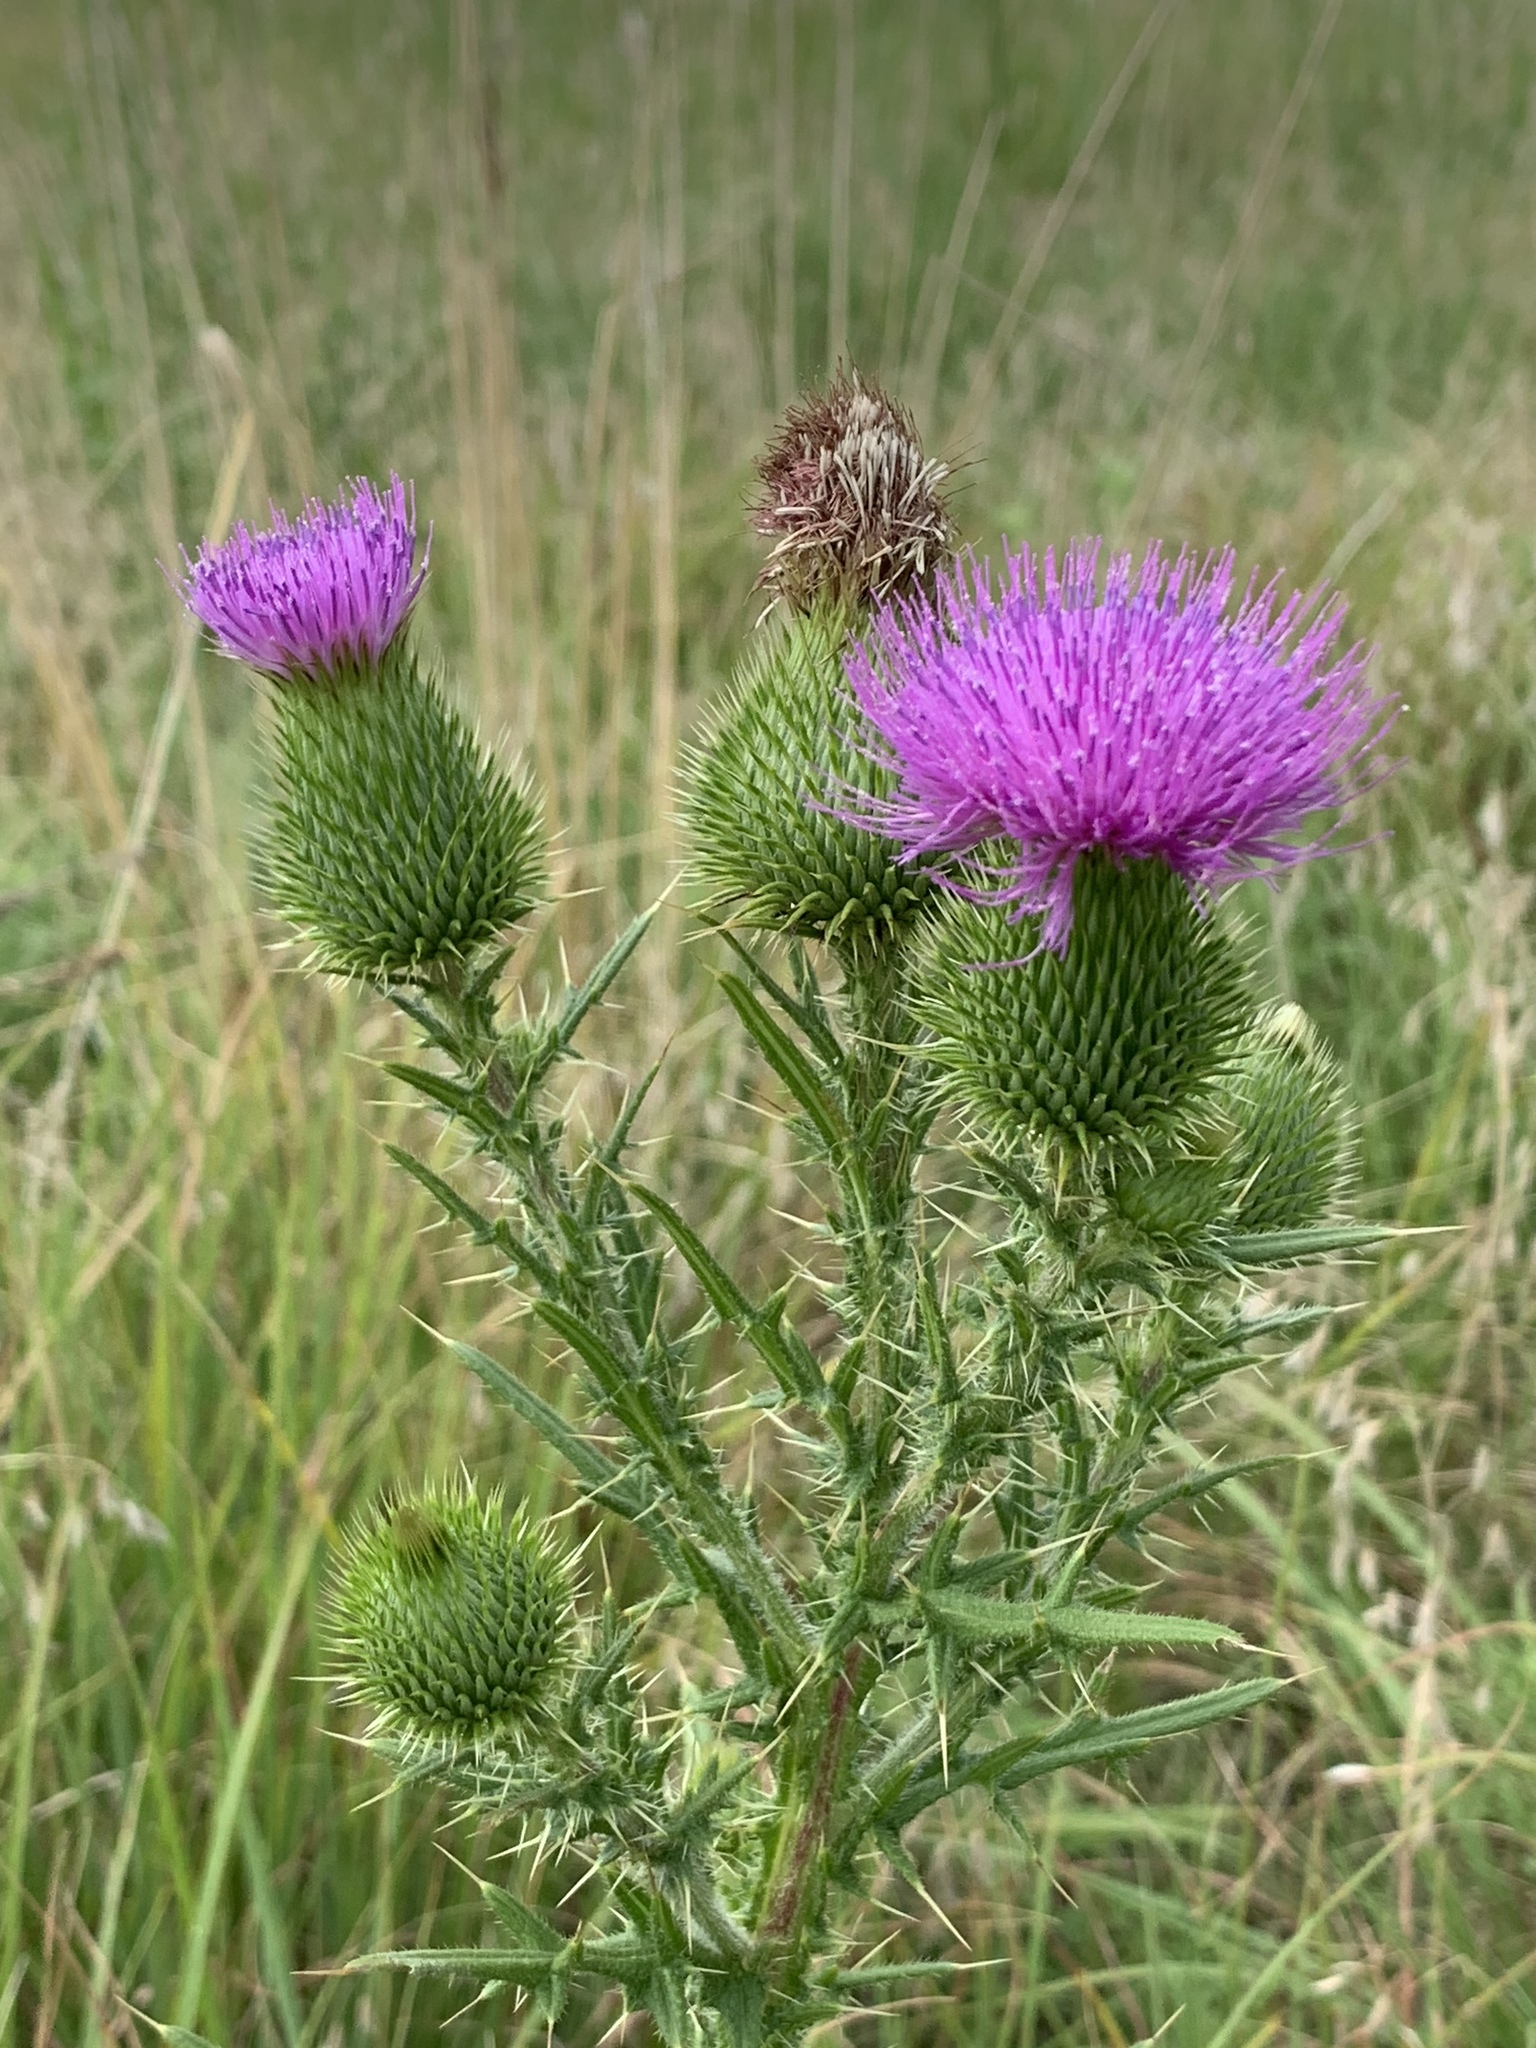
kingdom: Plantae
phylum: Tracheophyta
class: Magnoliopsida
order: Asterales
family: Asteraceae
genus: Cirsium
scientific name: Cirsium vulgare
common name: Bull thistle
